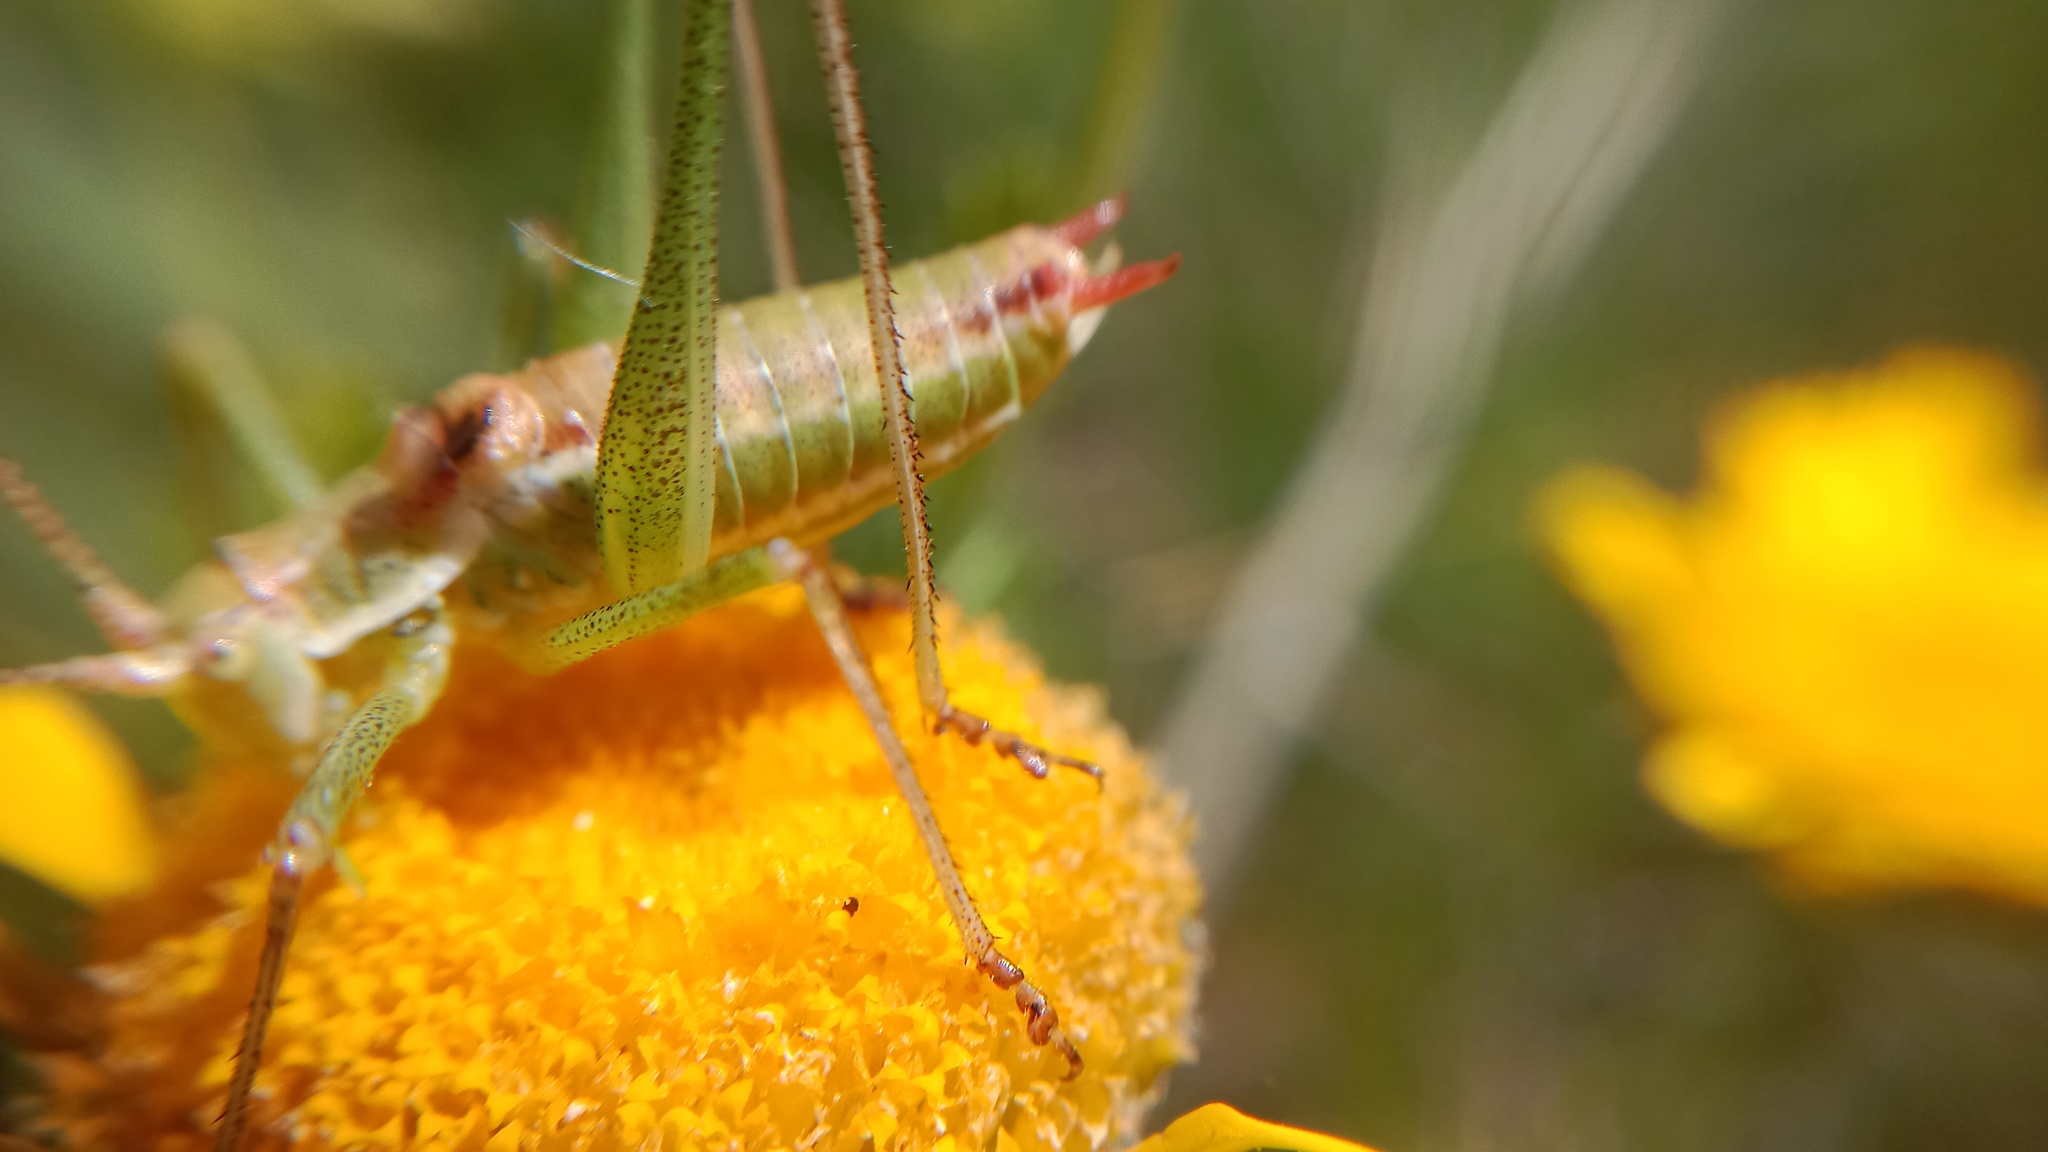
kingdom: Animalia
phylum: Arthropoda
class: Insecta
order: Orthoptera
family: Tettigoniidae
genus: Leptophyes
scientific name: Leptophyes albovittata
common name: Striped bush-cricket
